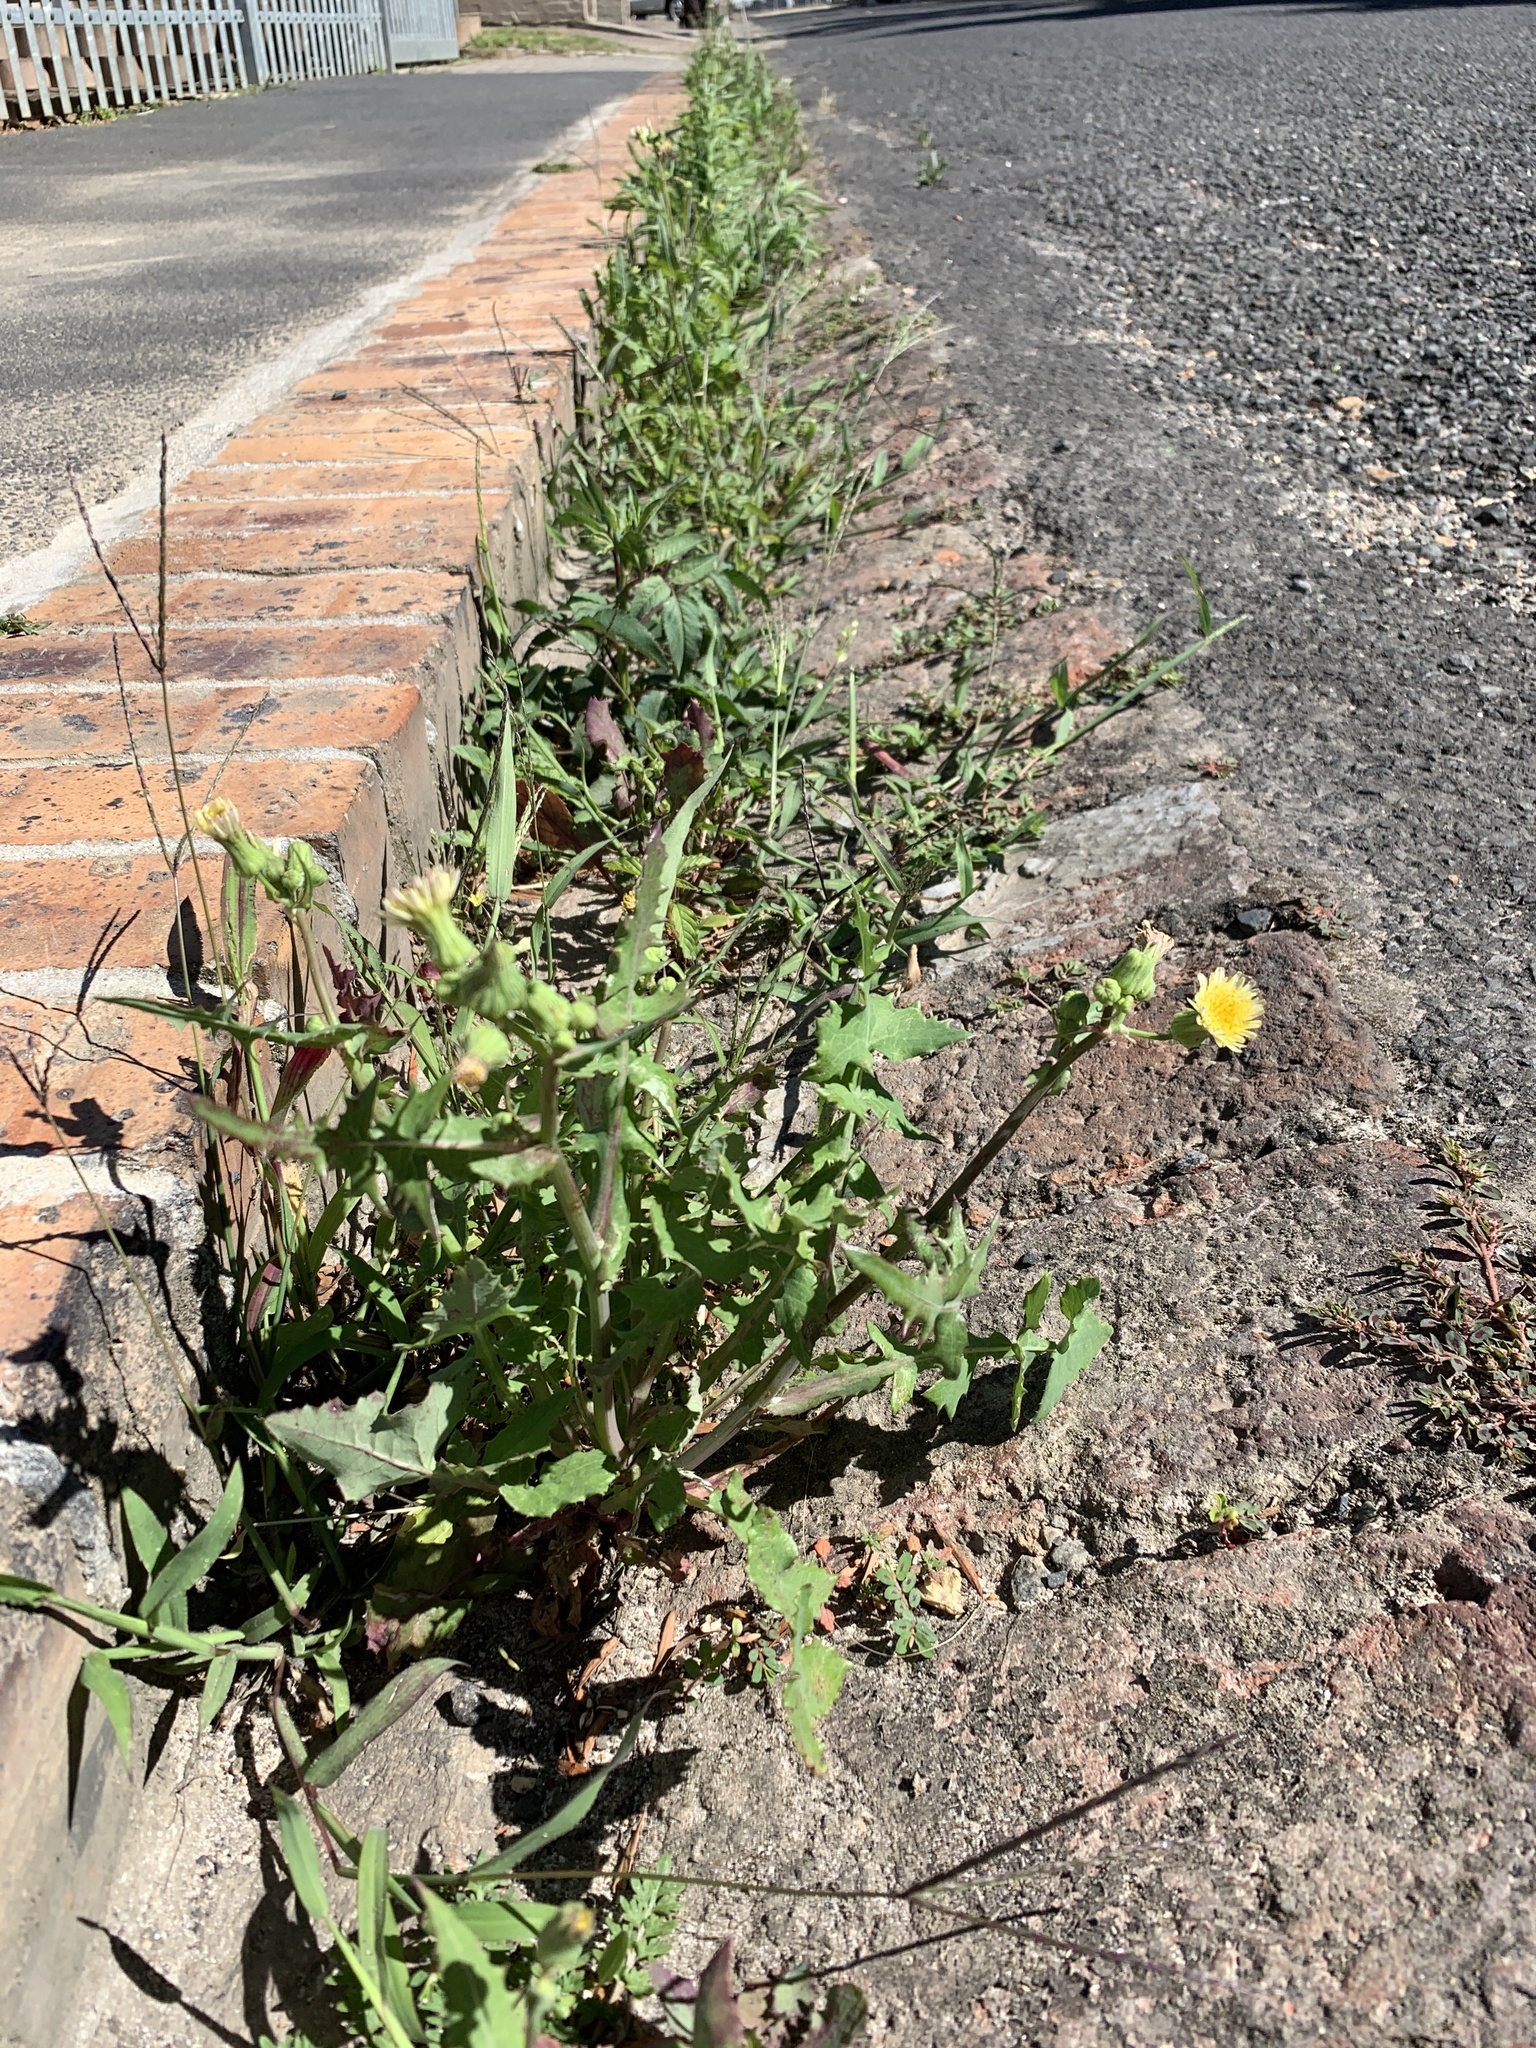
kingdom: Plantae
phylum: Tracheophyta
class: Magnoliopsida
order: Asterales
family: Asteraceae
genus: Sonchus
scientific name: Sonchus oleraceus
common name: Common sowthistle
